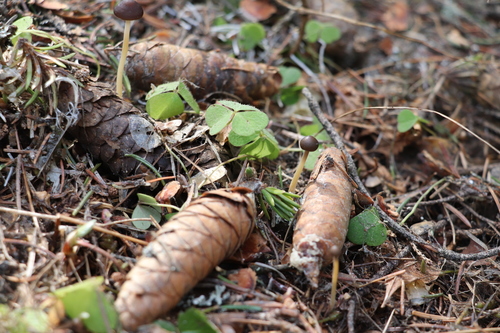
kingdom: Fungi
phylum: Basidiomycota
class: Agaricomycetes
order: Agaricales
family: Physalacriaceae
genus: Strobilurus
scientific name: Strobilurus esculentus
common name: Sprucecone cap
